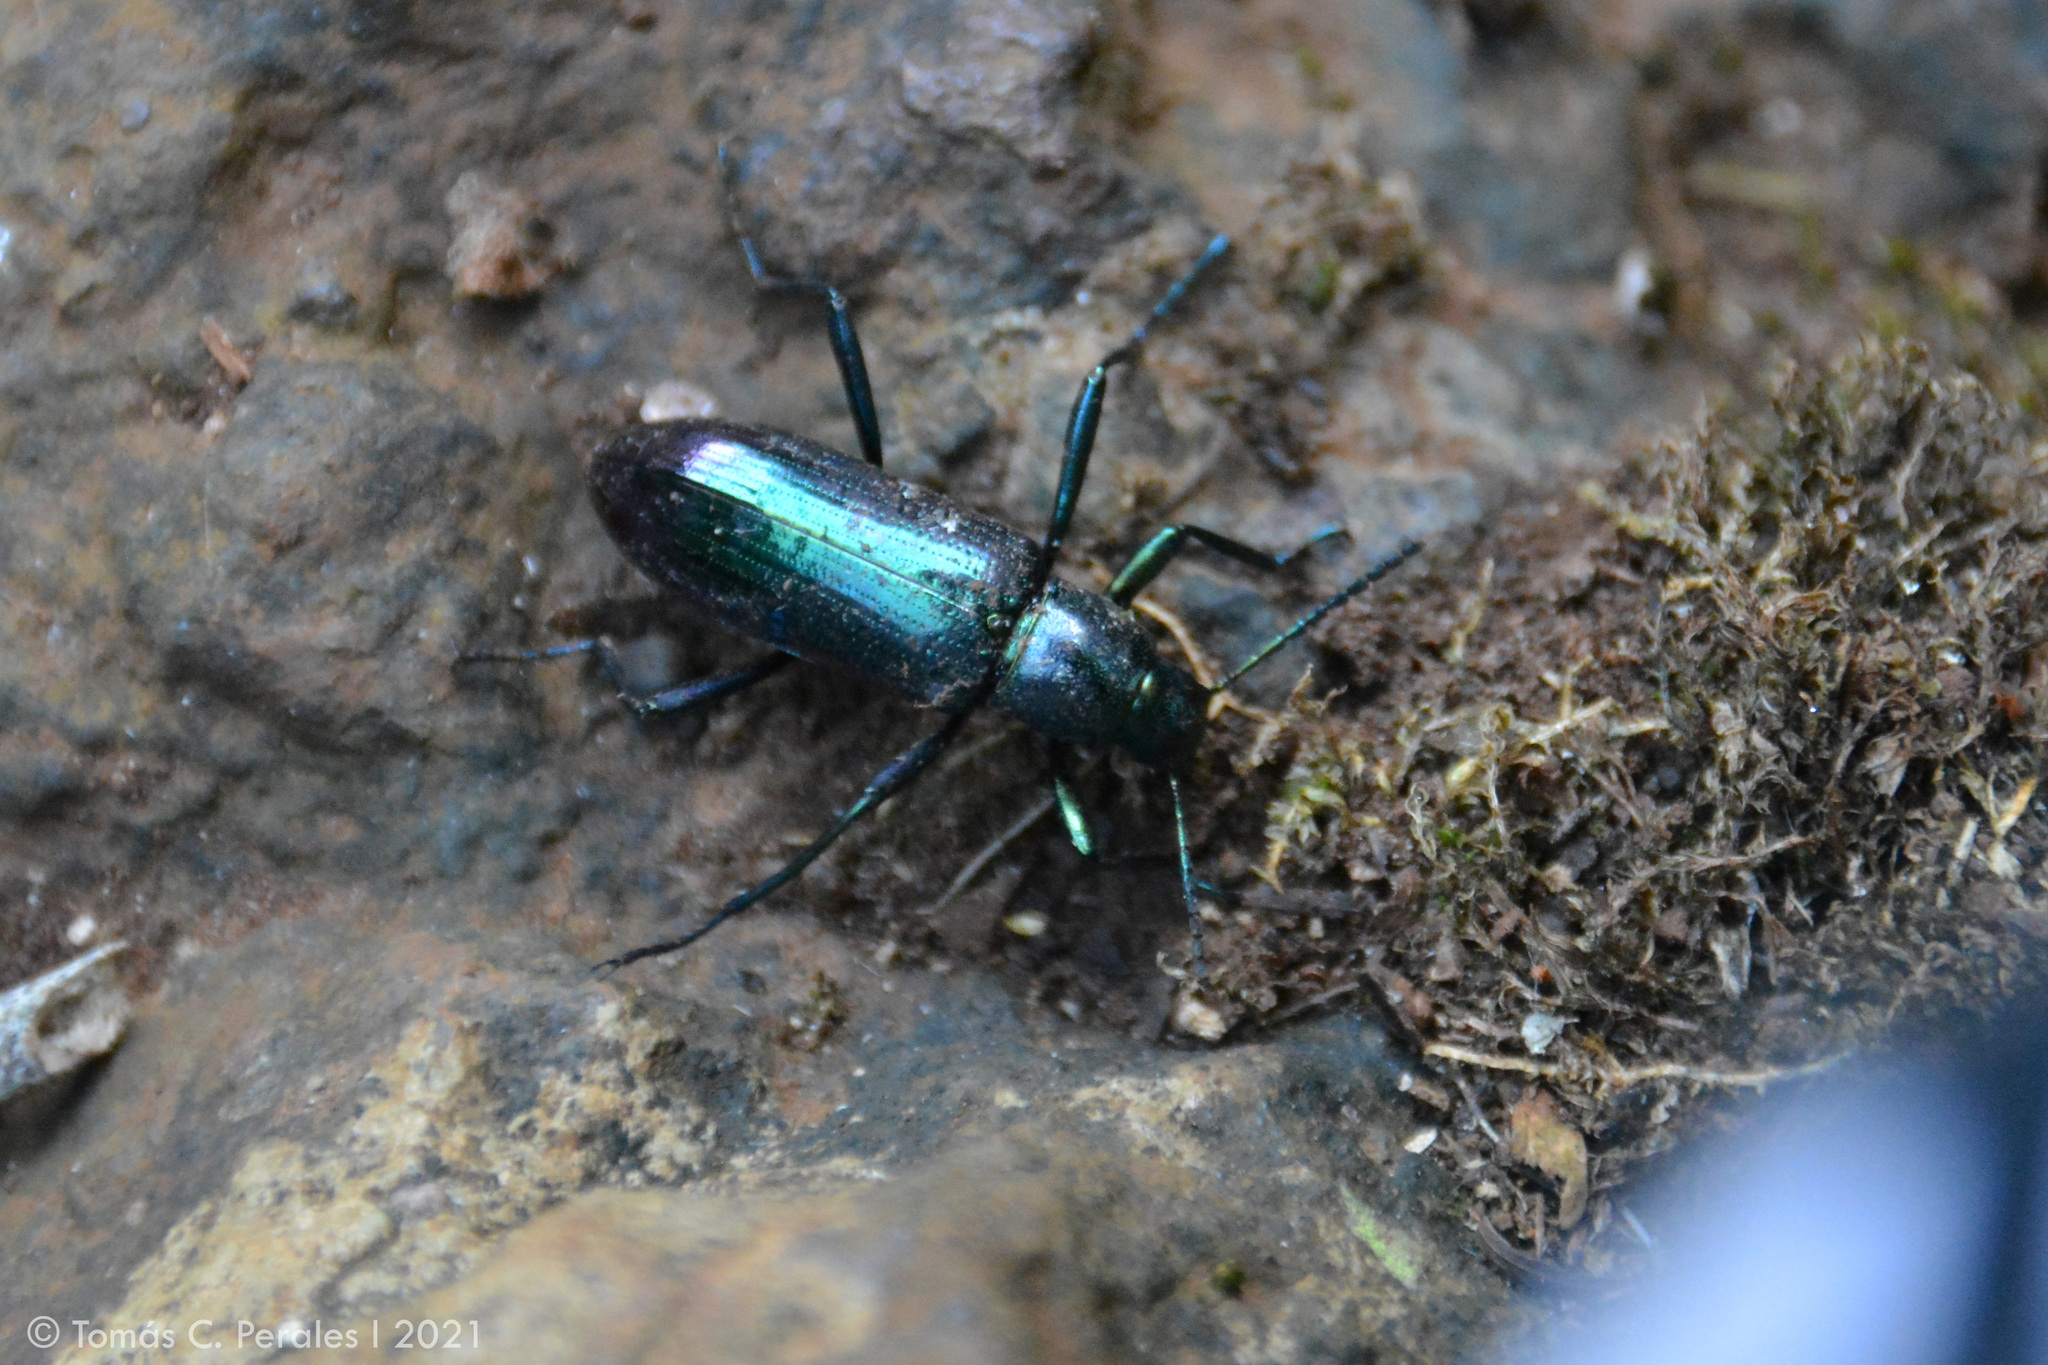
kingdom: Animalia
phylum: Arthropoda
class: Insecta
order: Coleoptera
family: Tenebrionidae
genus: Strongylium
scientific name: Strongylium
